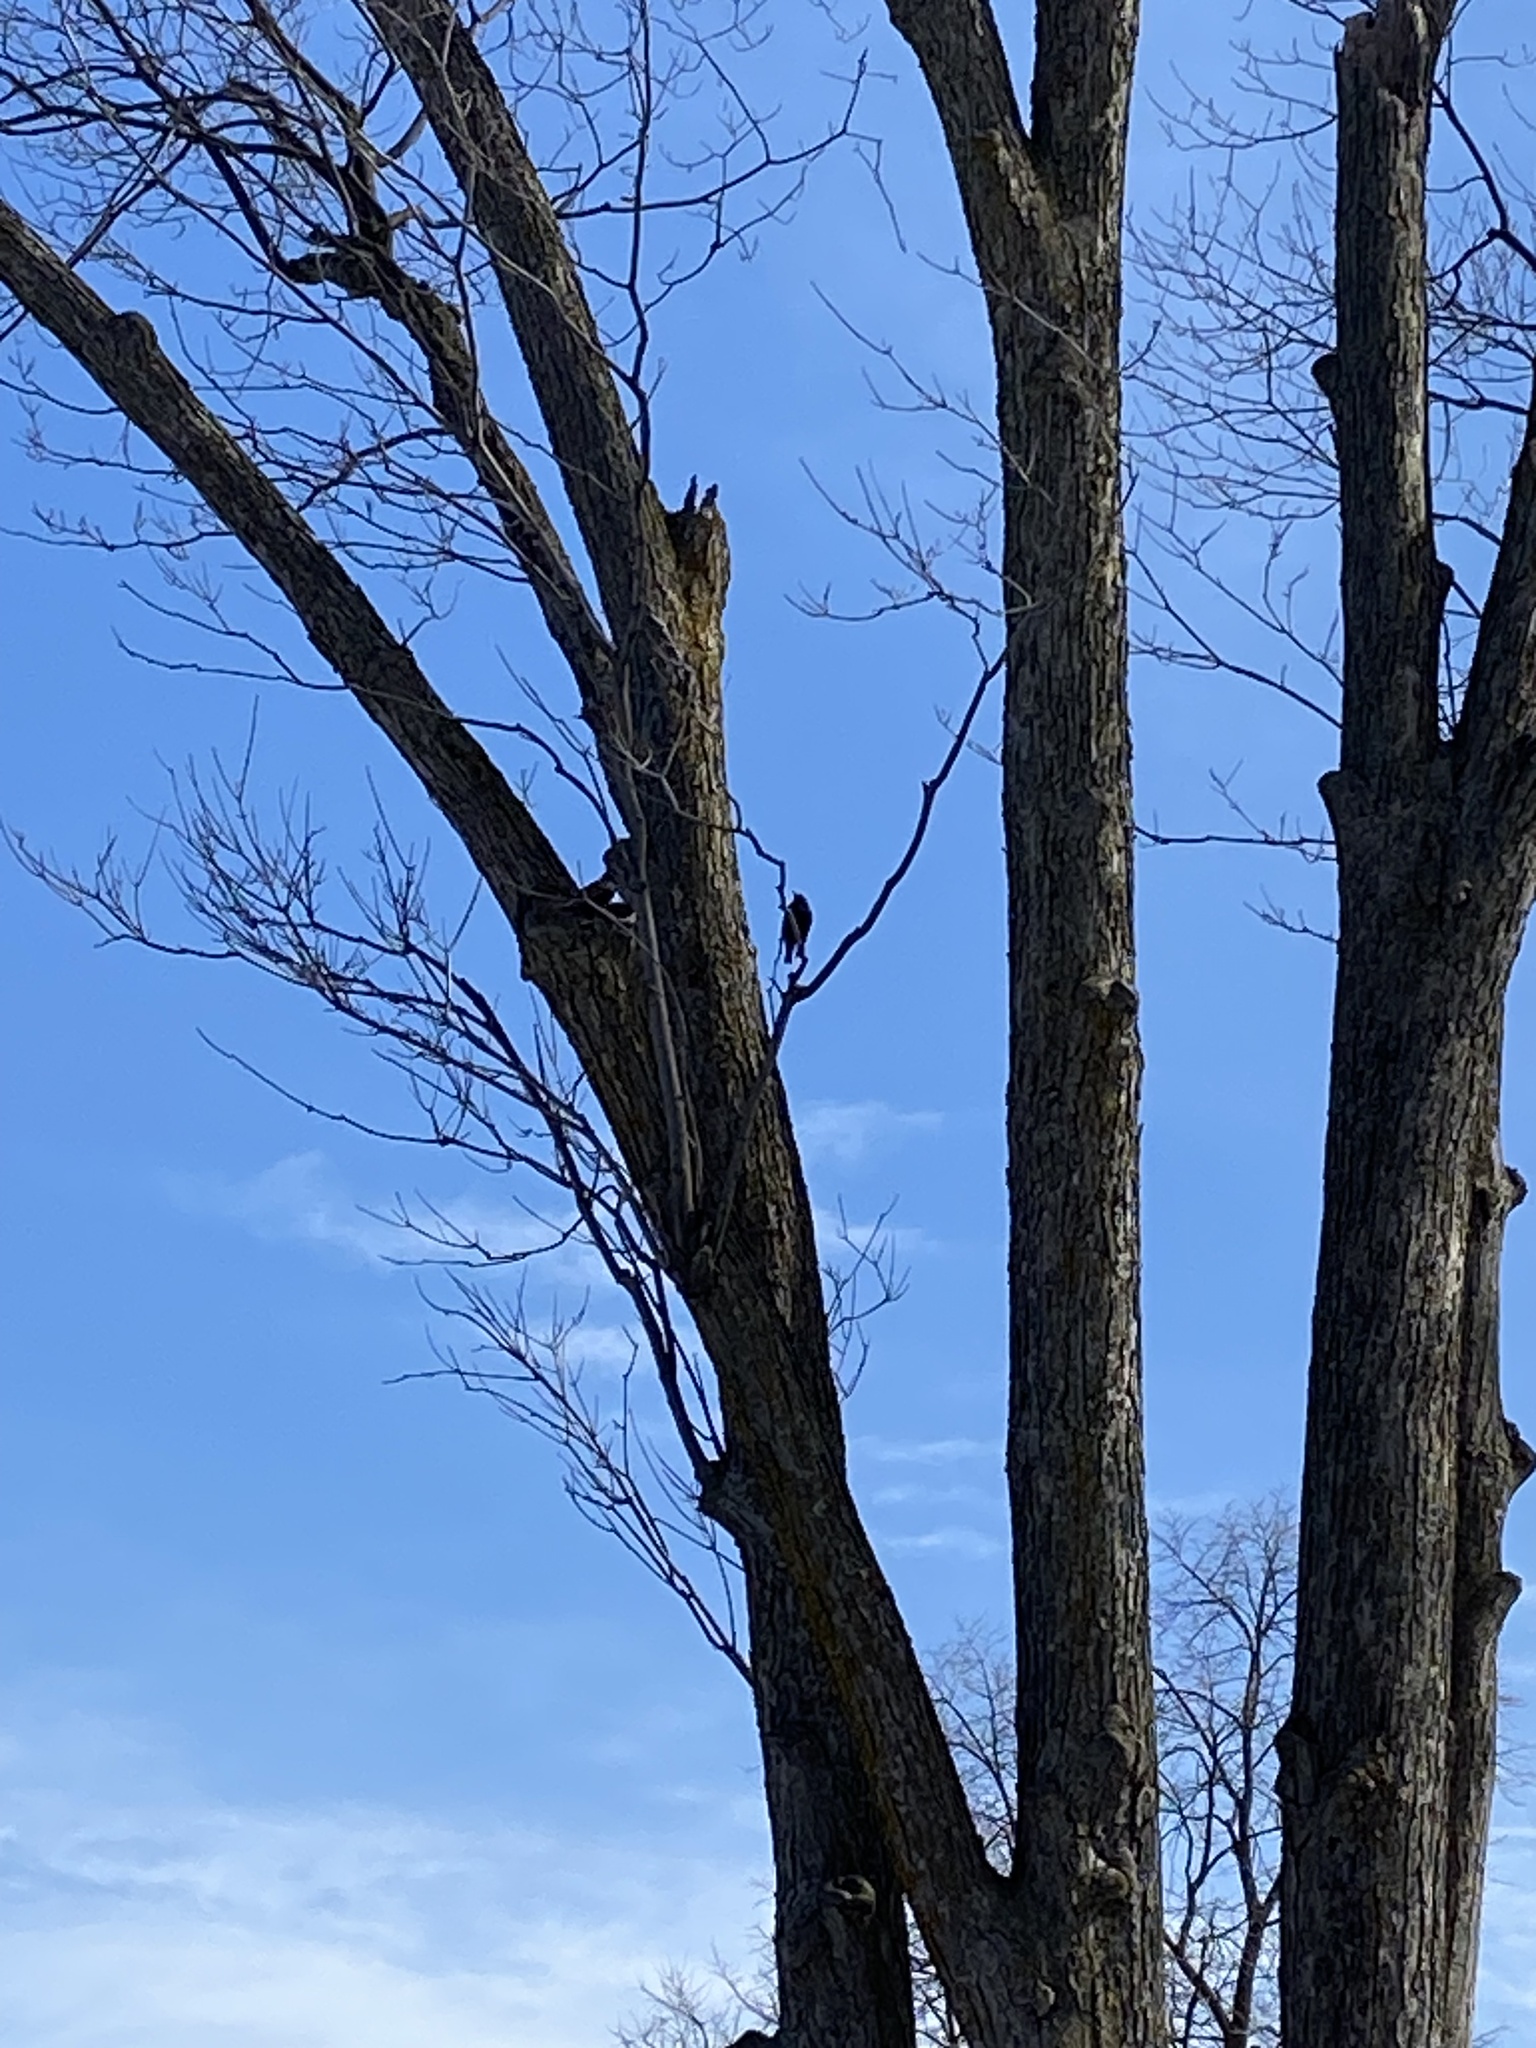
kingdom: Animalia
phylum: Chordata
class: Aves
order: Passeriformes
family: Sturnidae
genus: Sturnus
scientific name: Sturnus vulgaris
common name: Common starling
